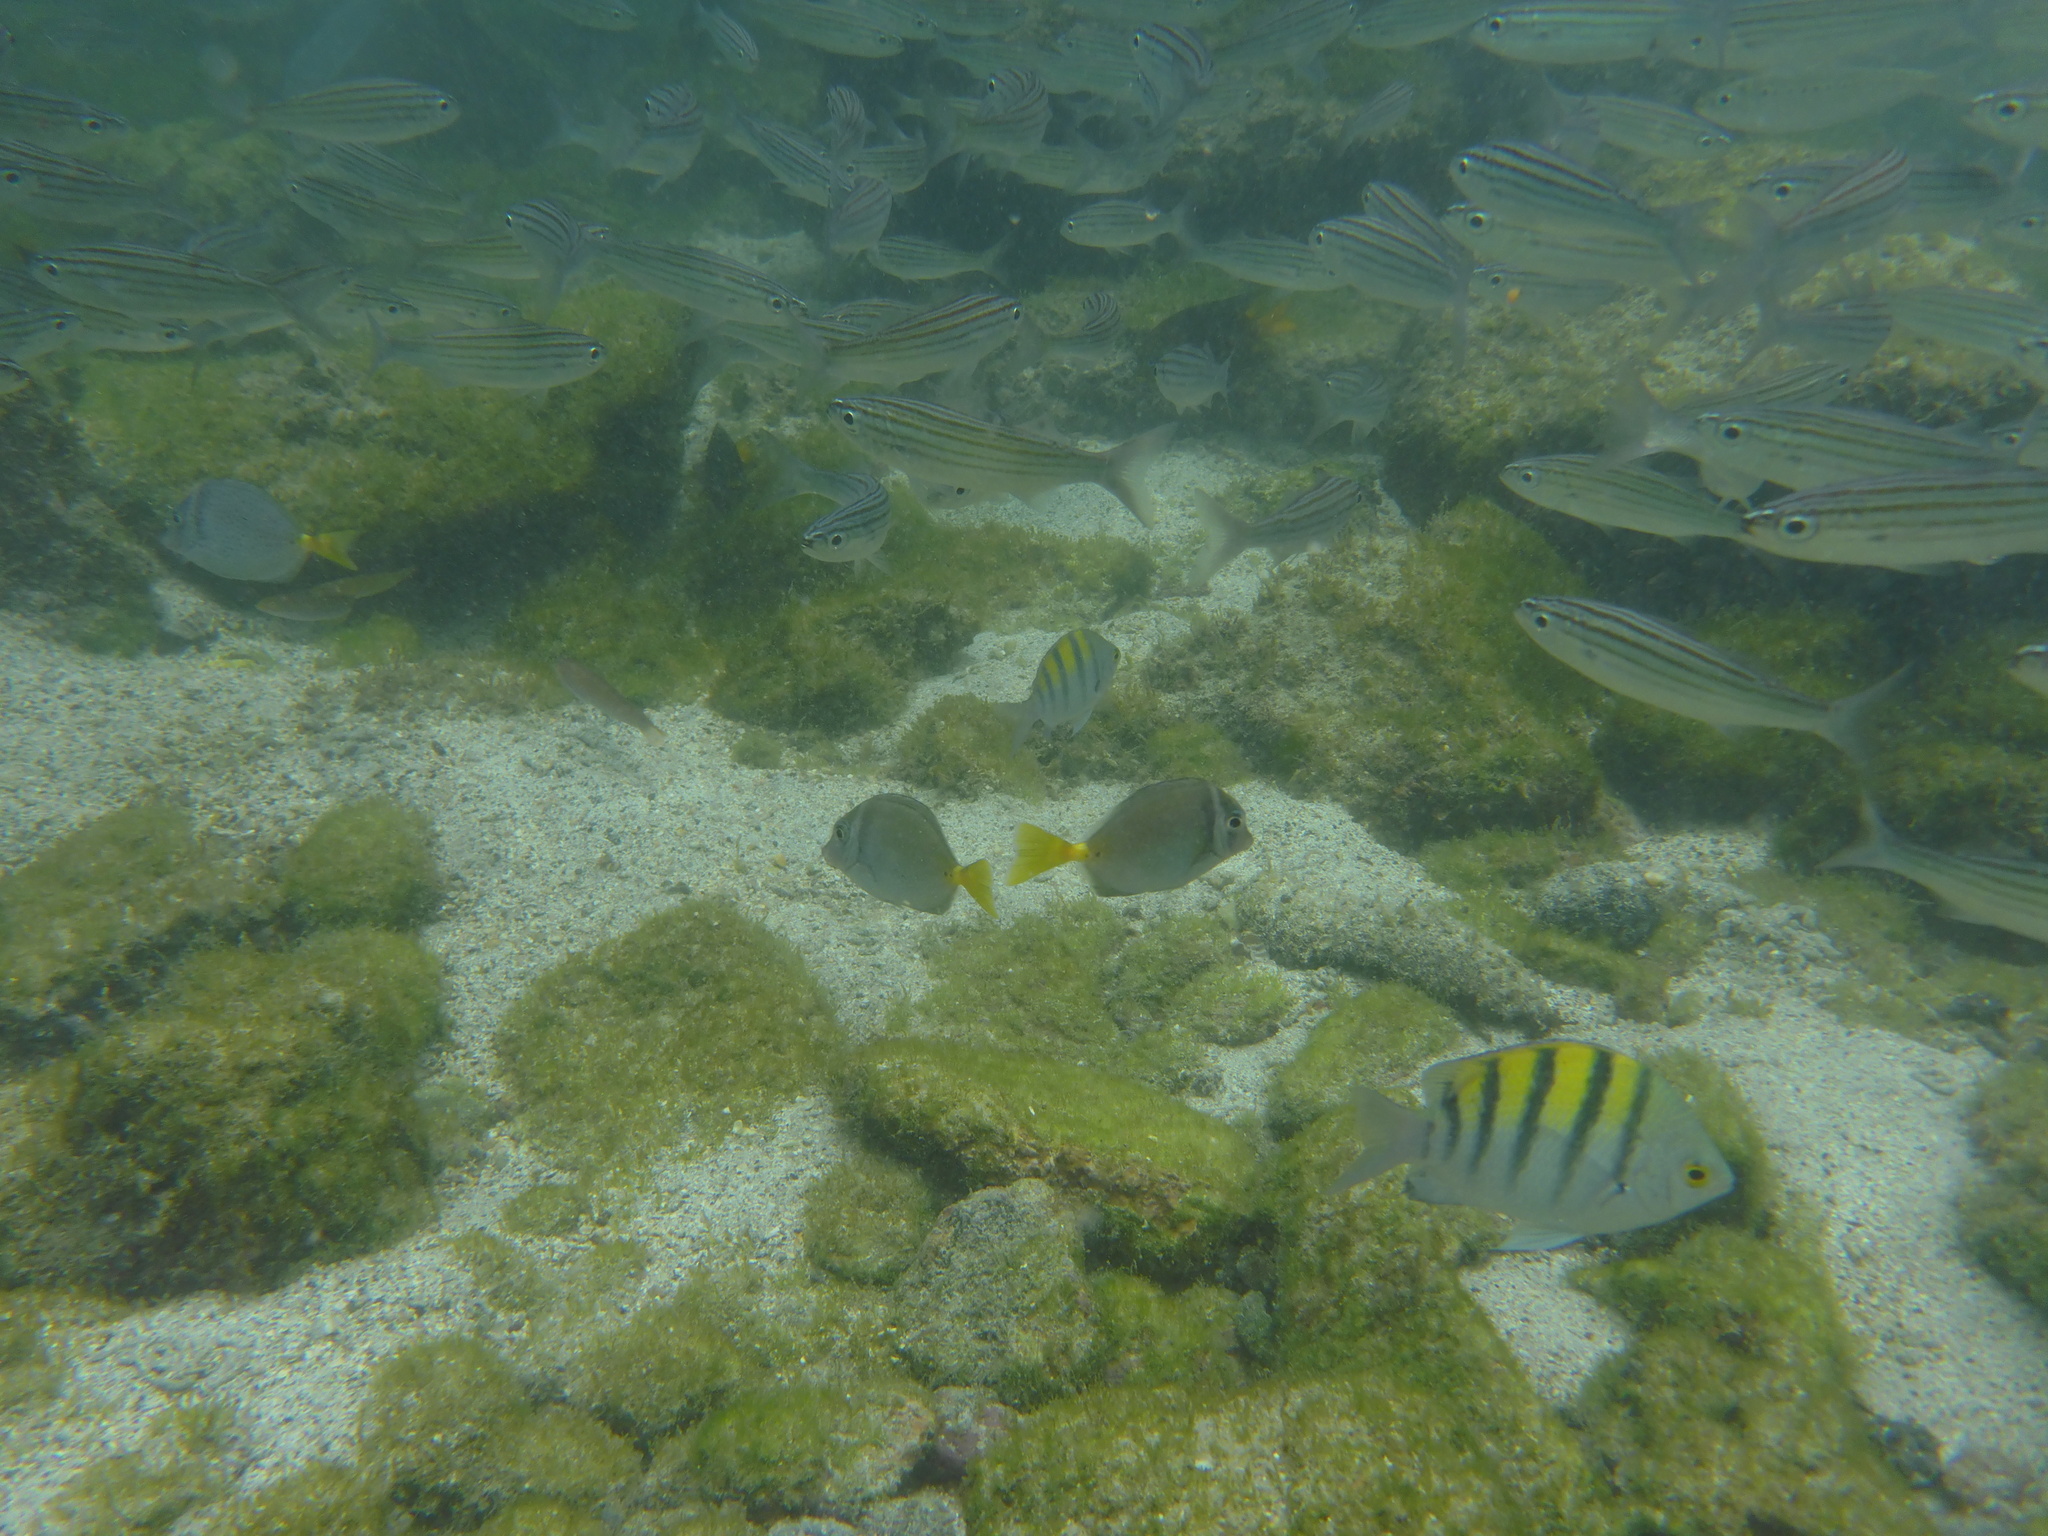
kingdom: Animalia
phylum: Chordata
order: Perciformes
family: Pomacentridae
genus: Abudefduf
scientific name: Abudefduf troschelii
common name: Panamic sergeant major
